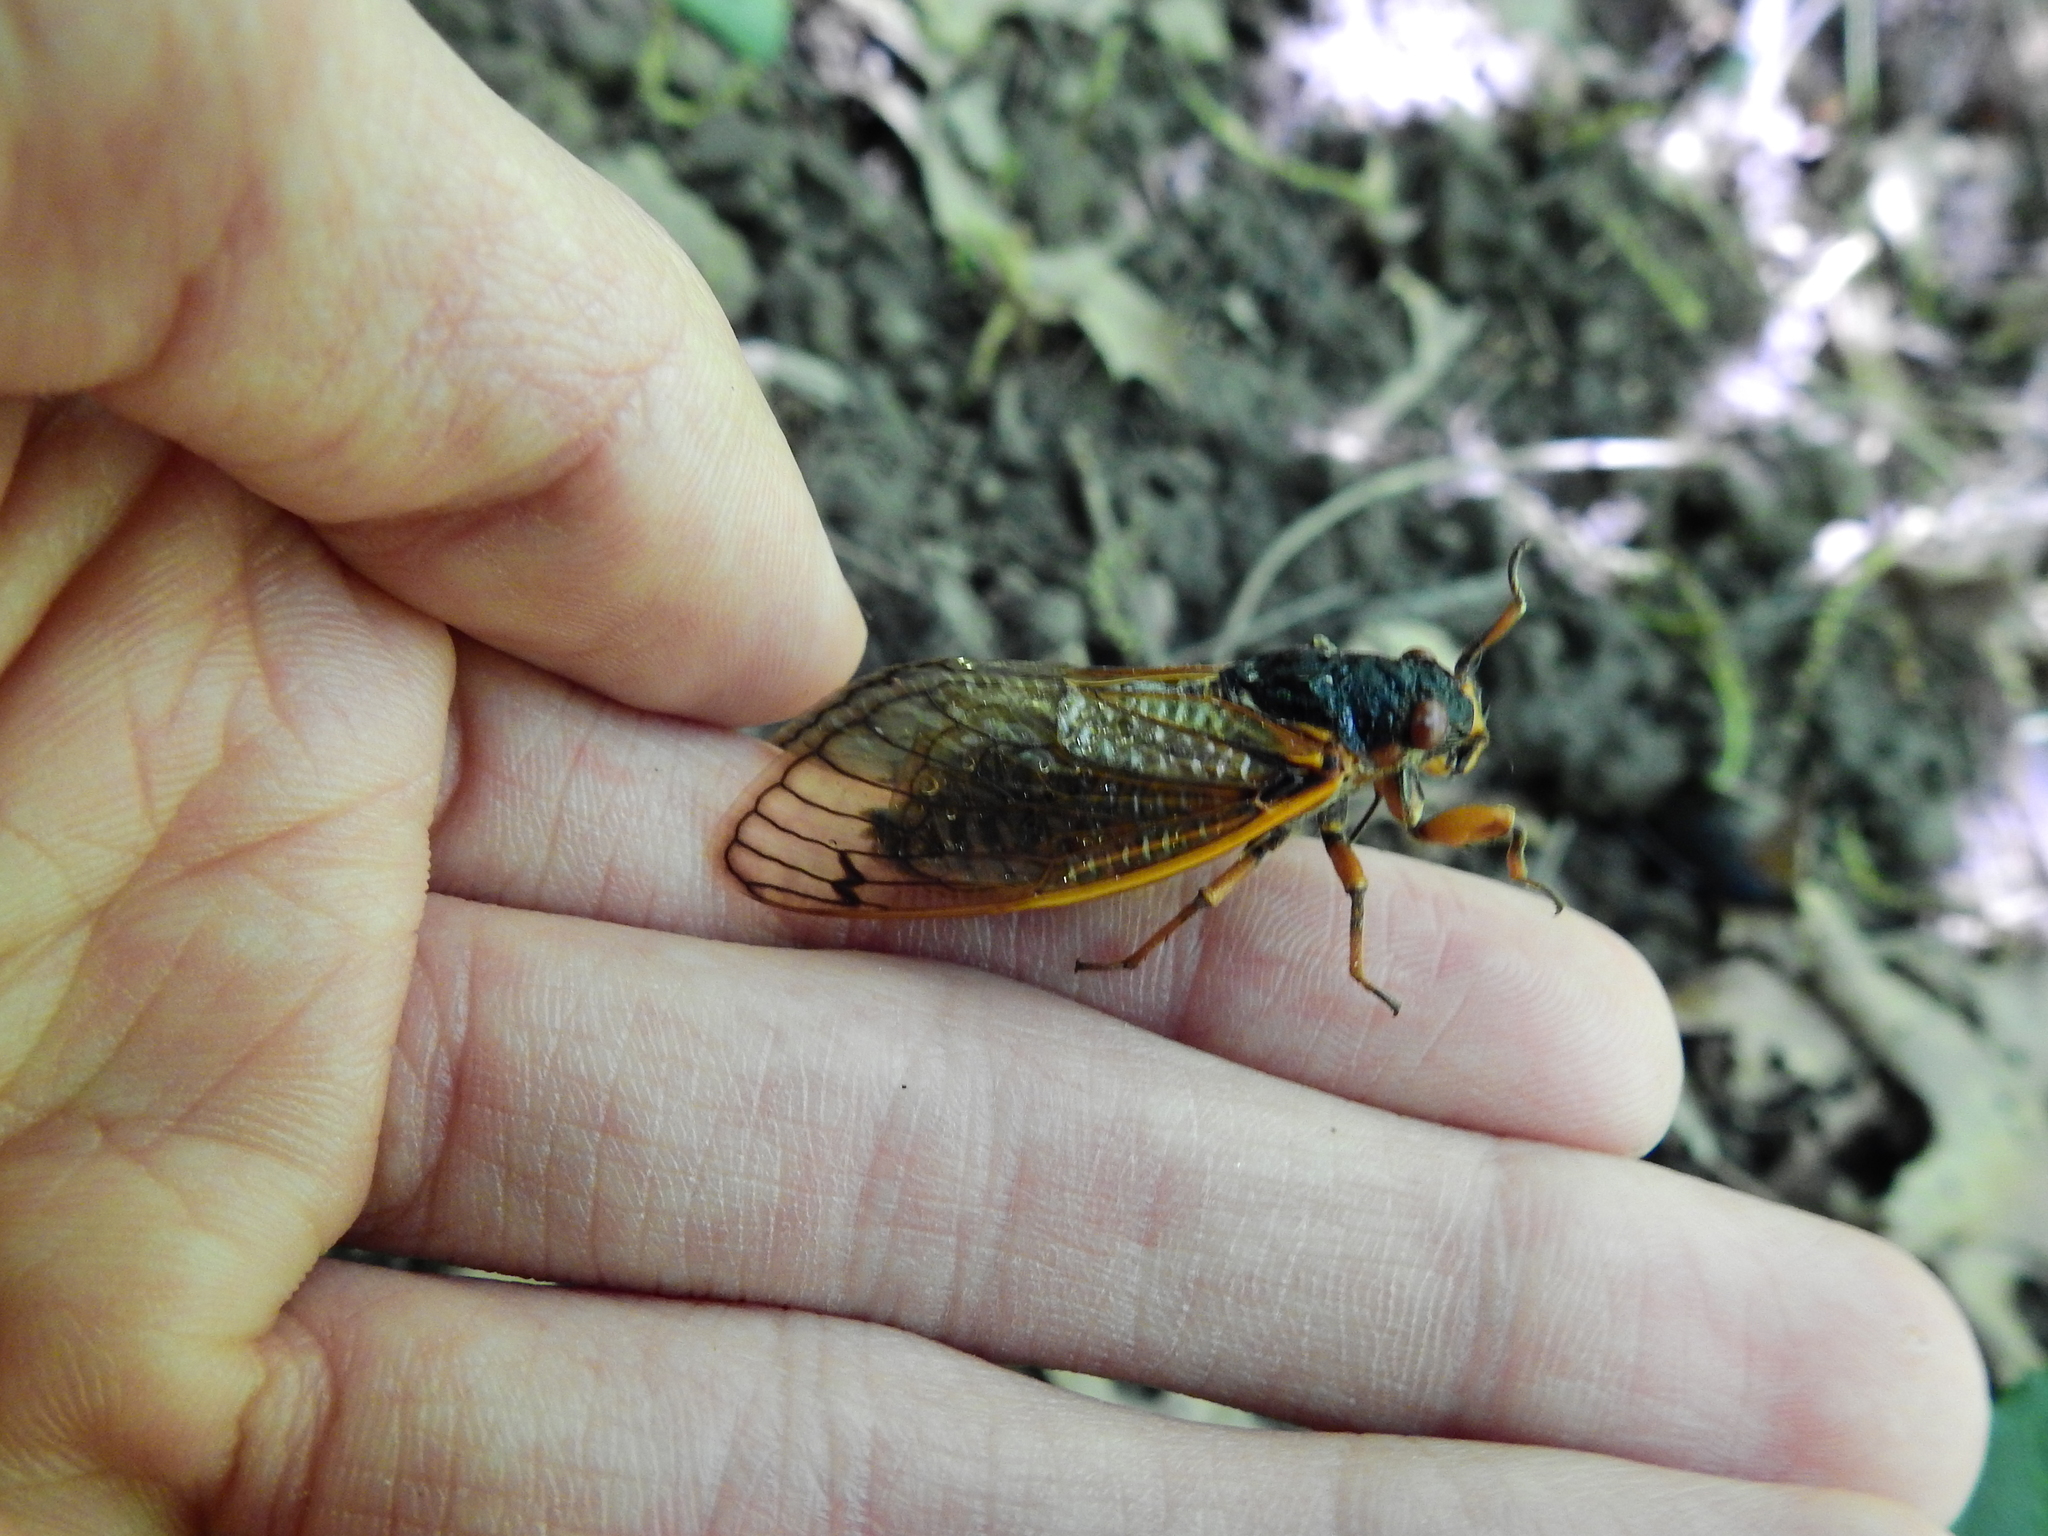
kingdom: Animalia
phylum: Arthropoda
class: Insecta
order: Hemiptera
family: Cicadidae
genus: Magicicada
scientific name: Magicicada septendecim
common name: Periodical cicada
